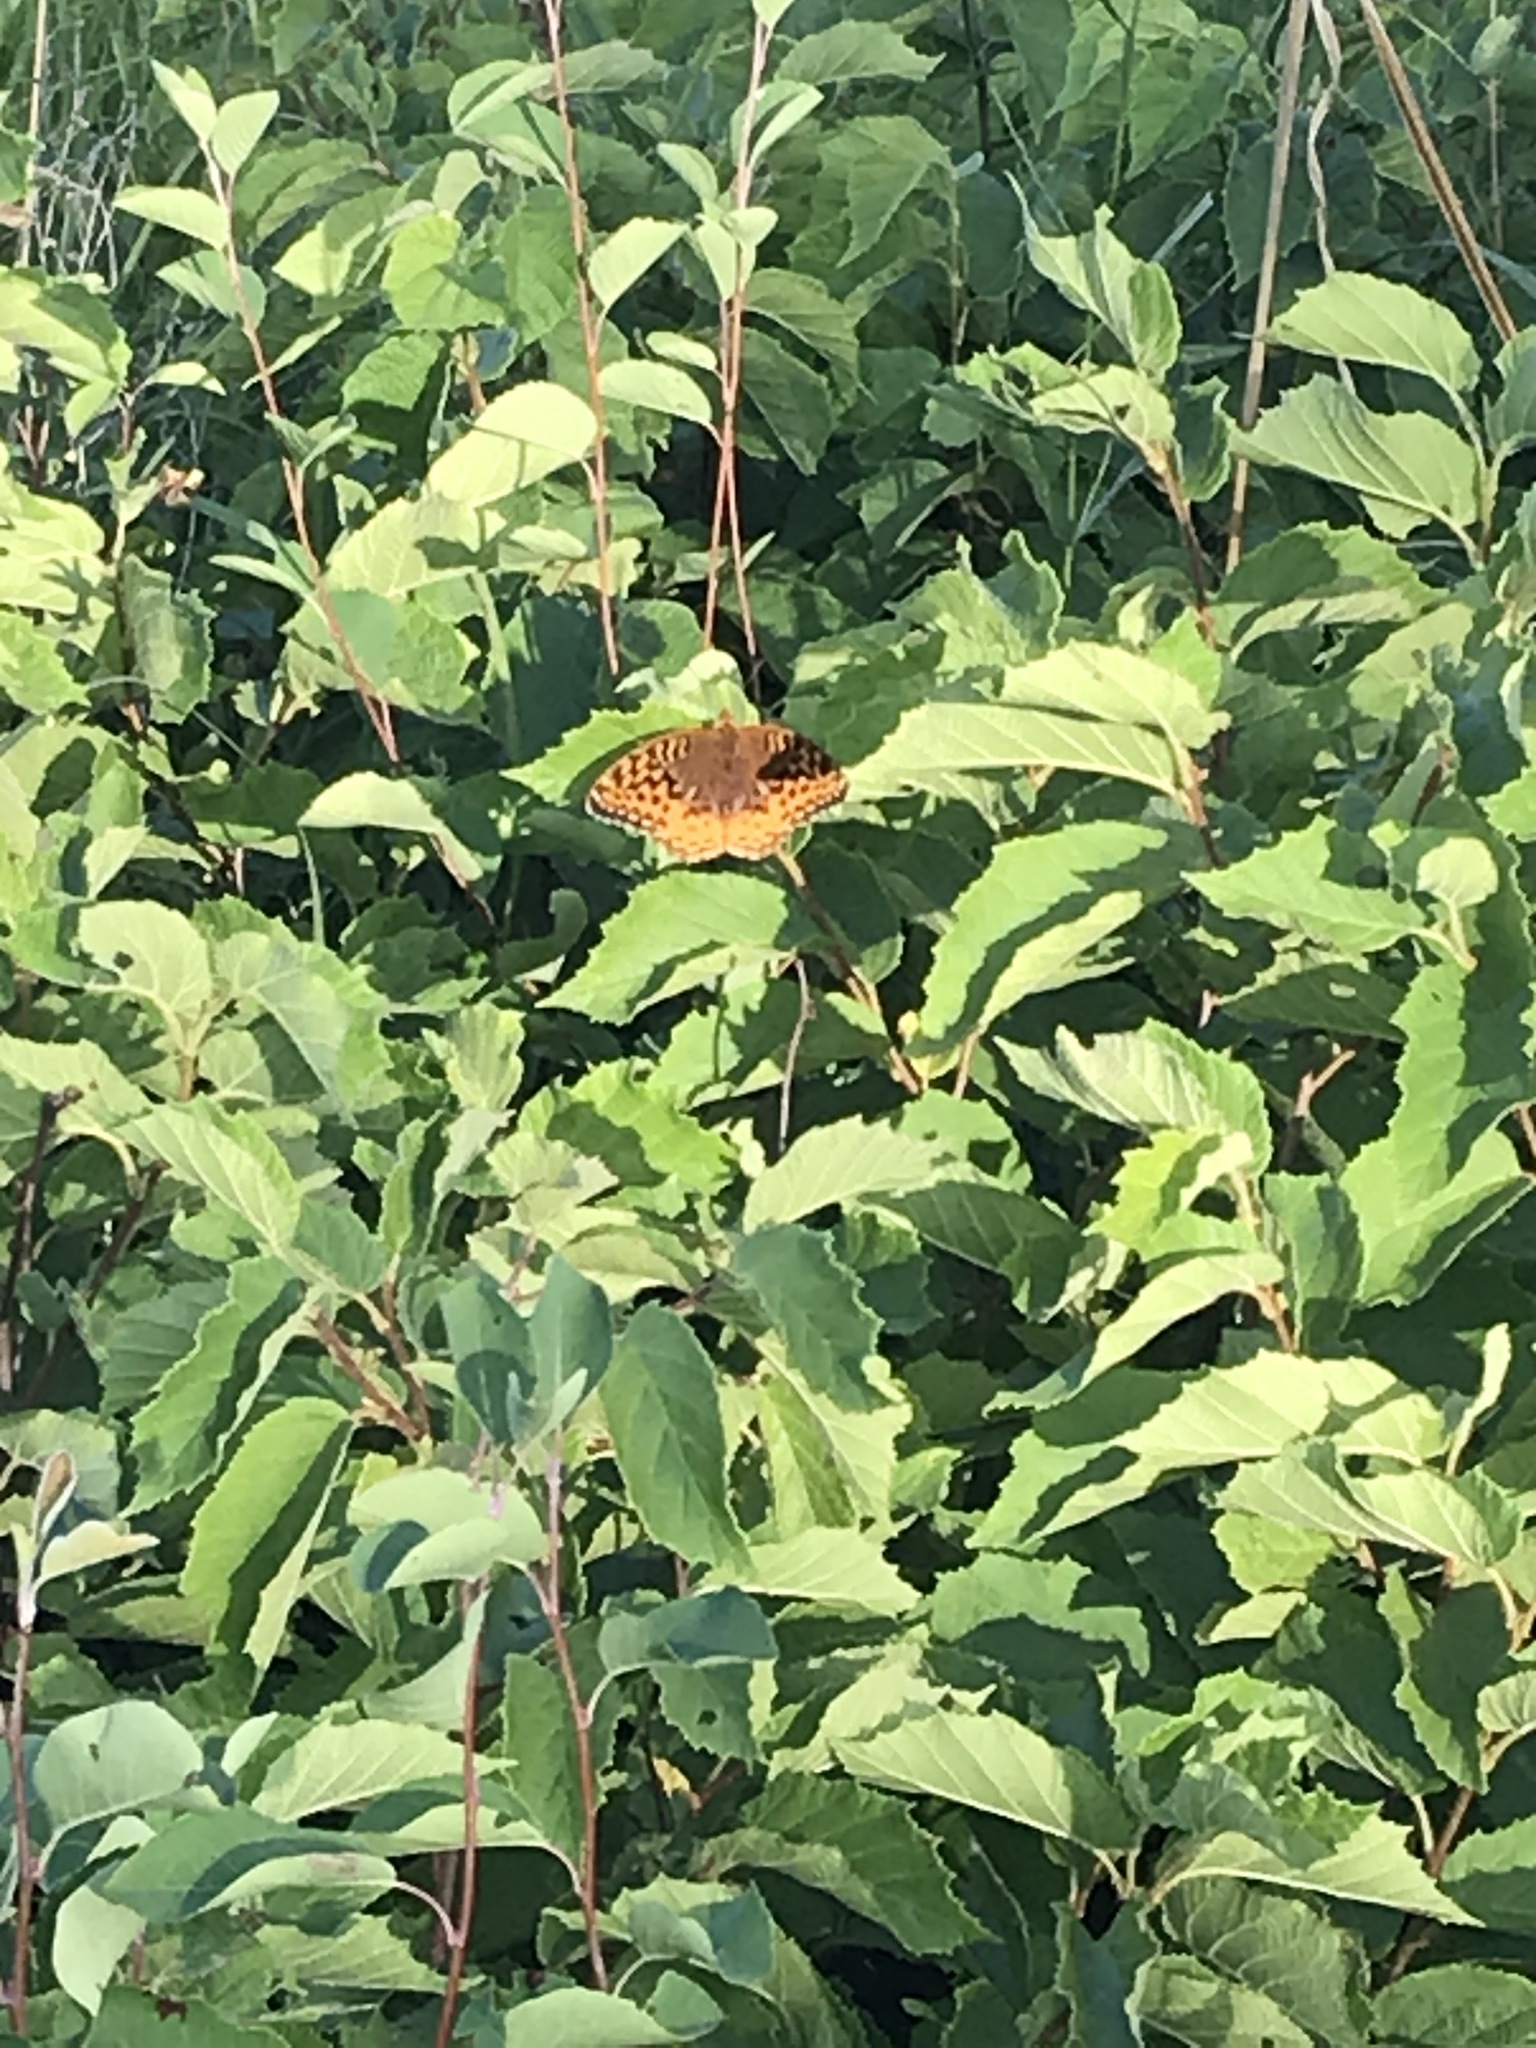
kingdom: Animalia
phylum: Arthropoda
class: Insecta
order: Lepidoptera
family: Nymphalidae
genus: Speyeria
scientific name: Speyeria cybele
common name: Great spangled fritillary
